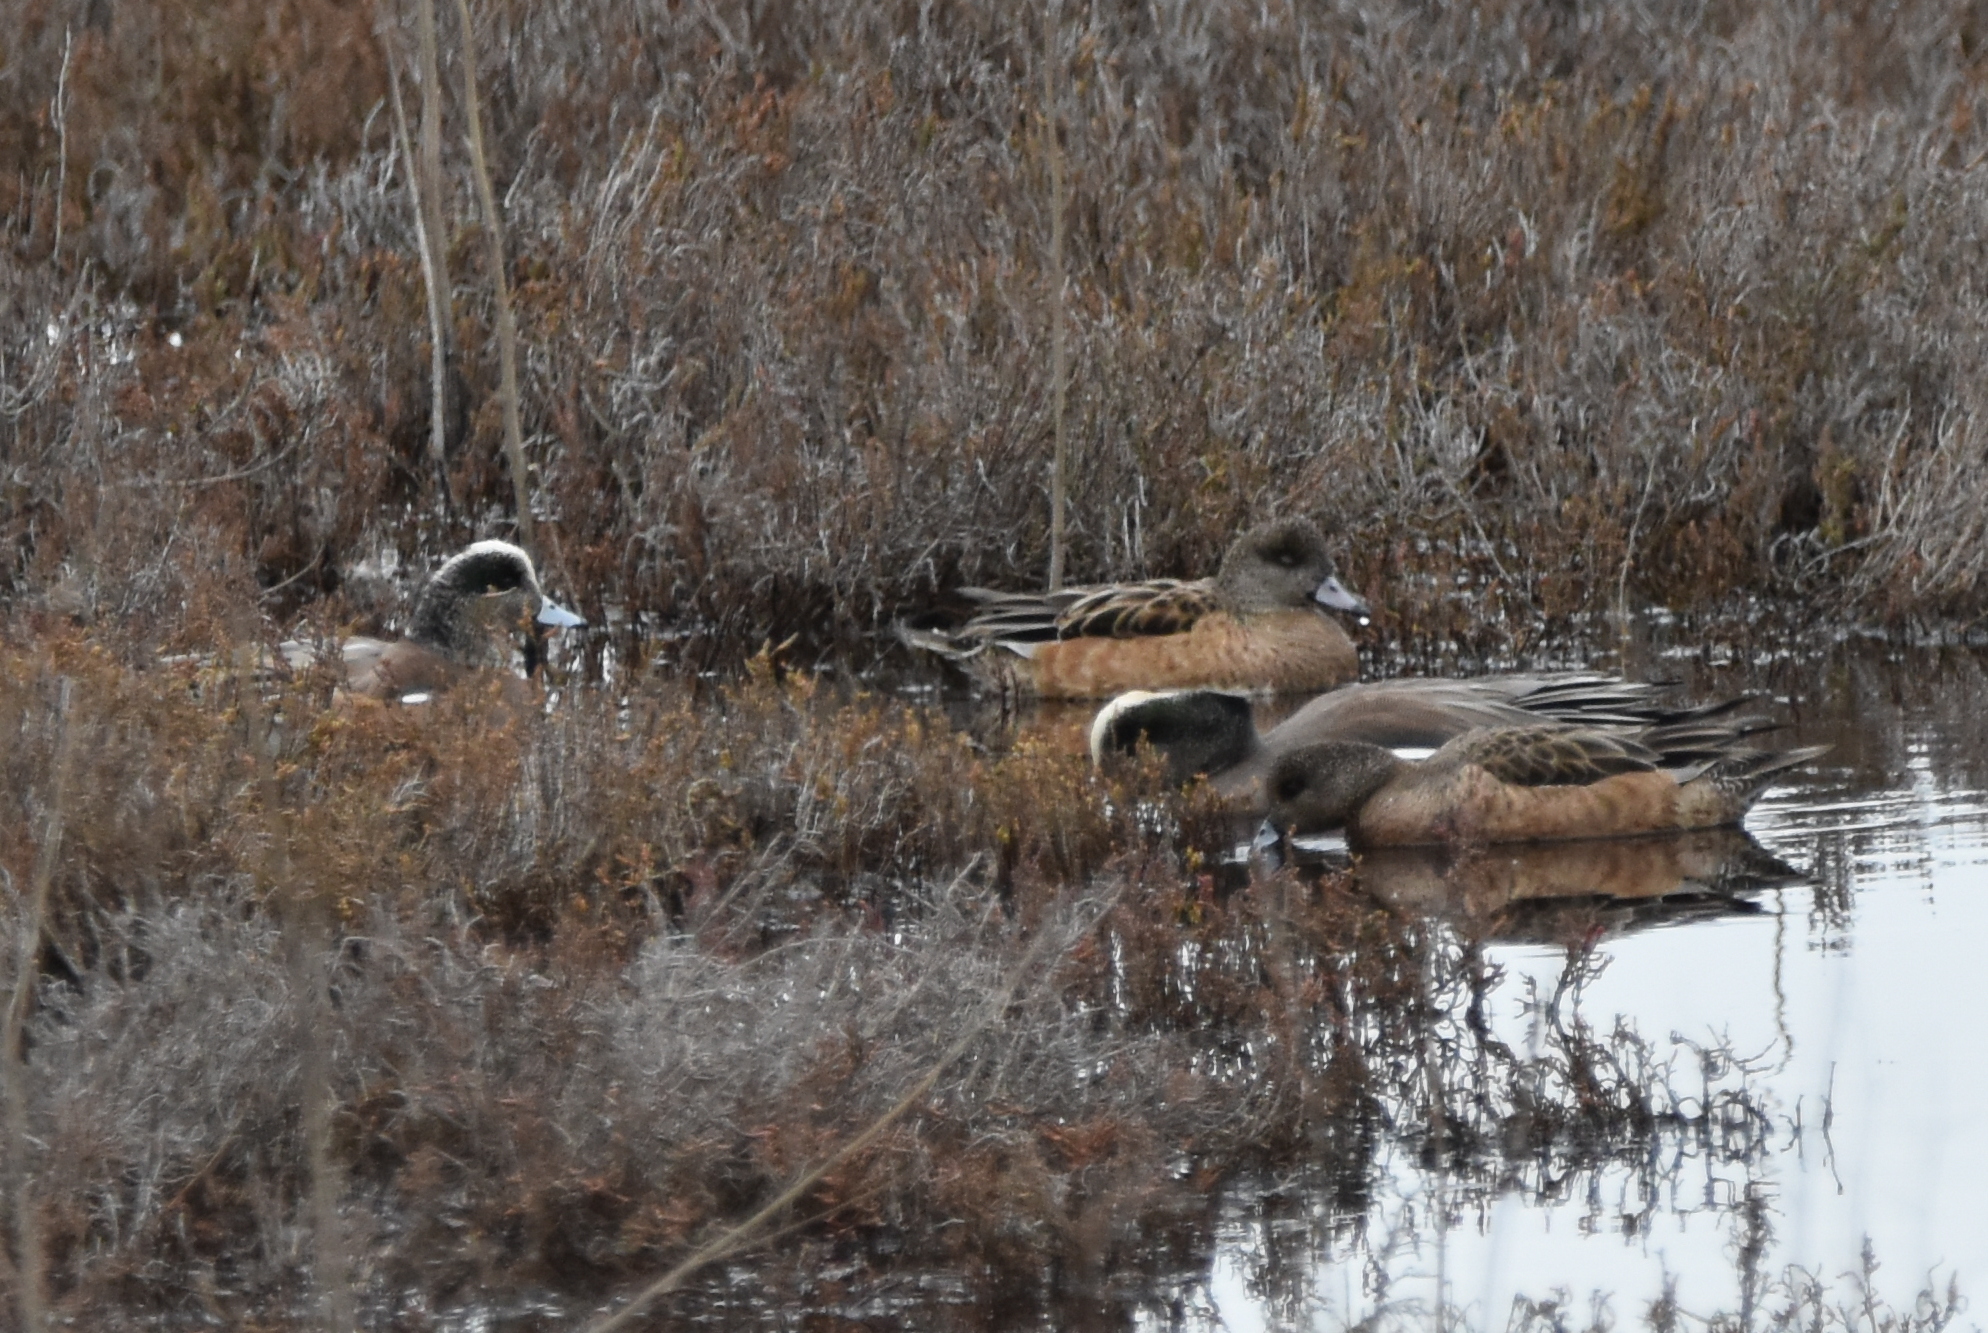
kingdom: Animalia
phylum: Chordata
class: Aves
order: Anseriformes
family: Anatidae
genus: Mareca
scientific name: Mareca americana
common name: American wigeon
